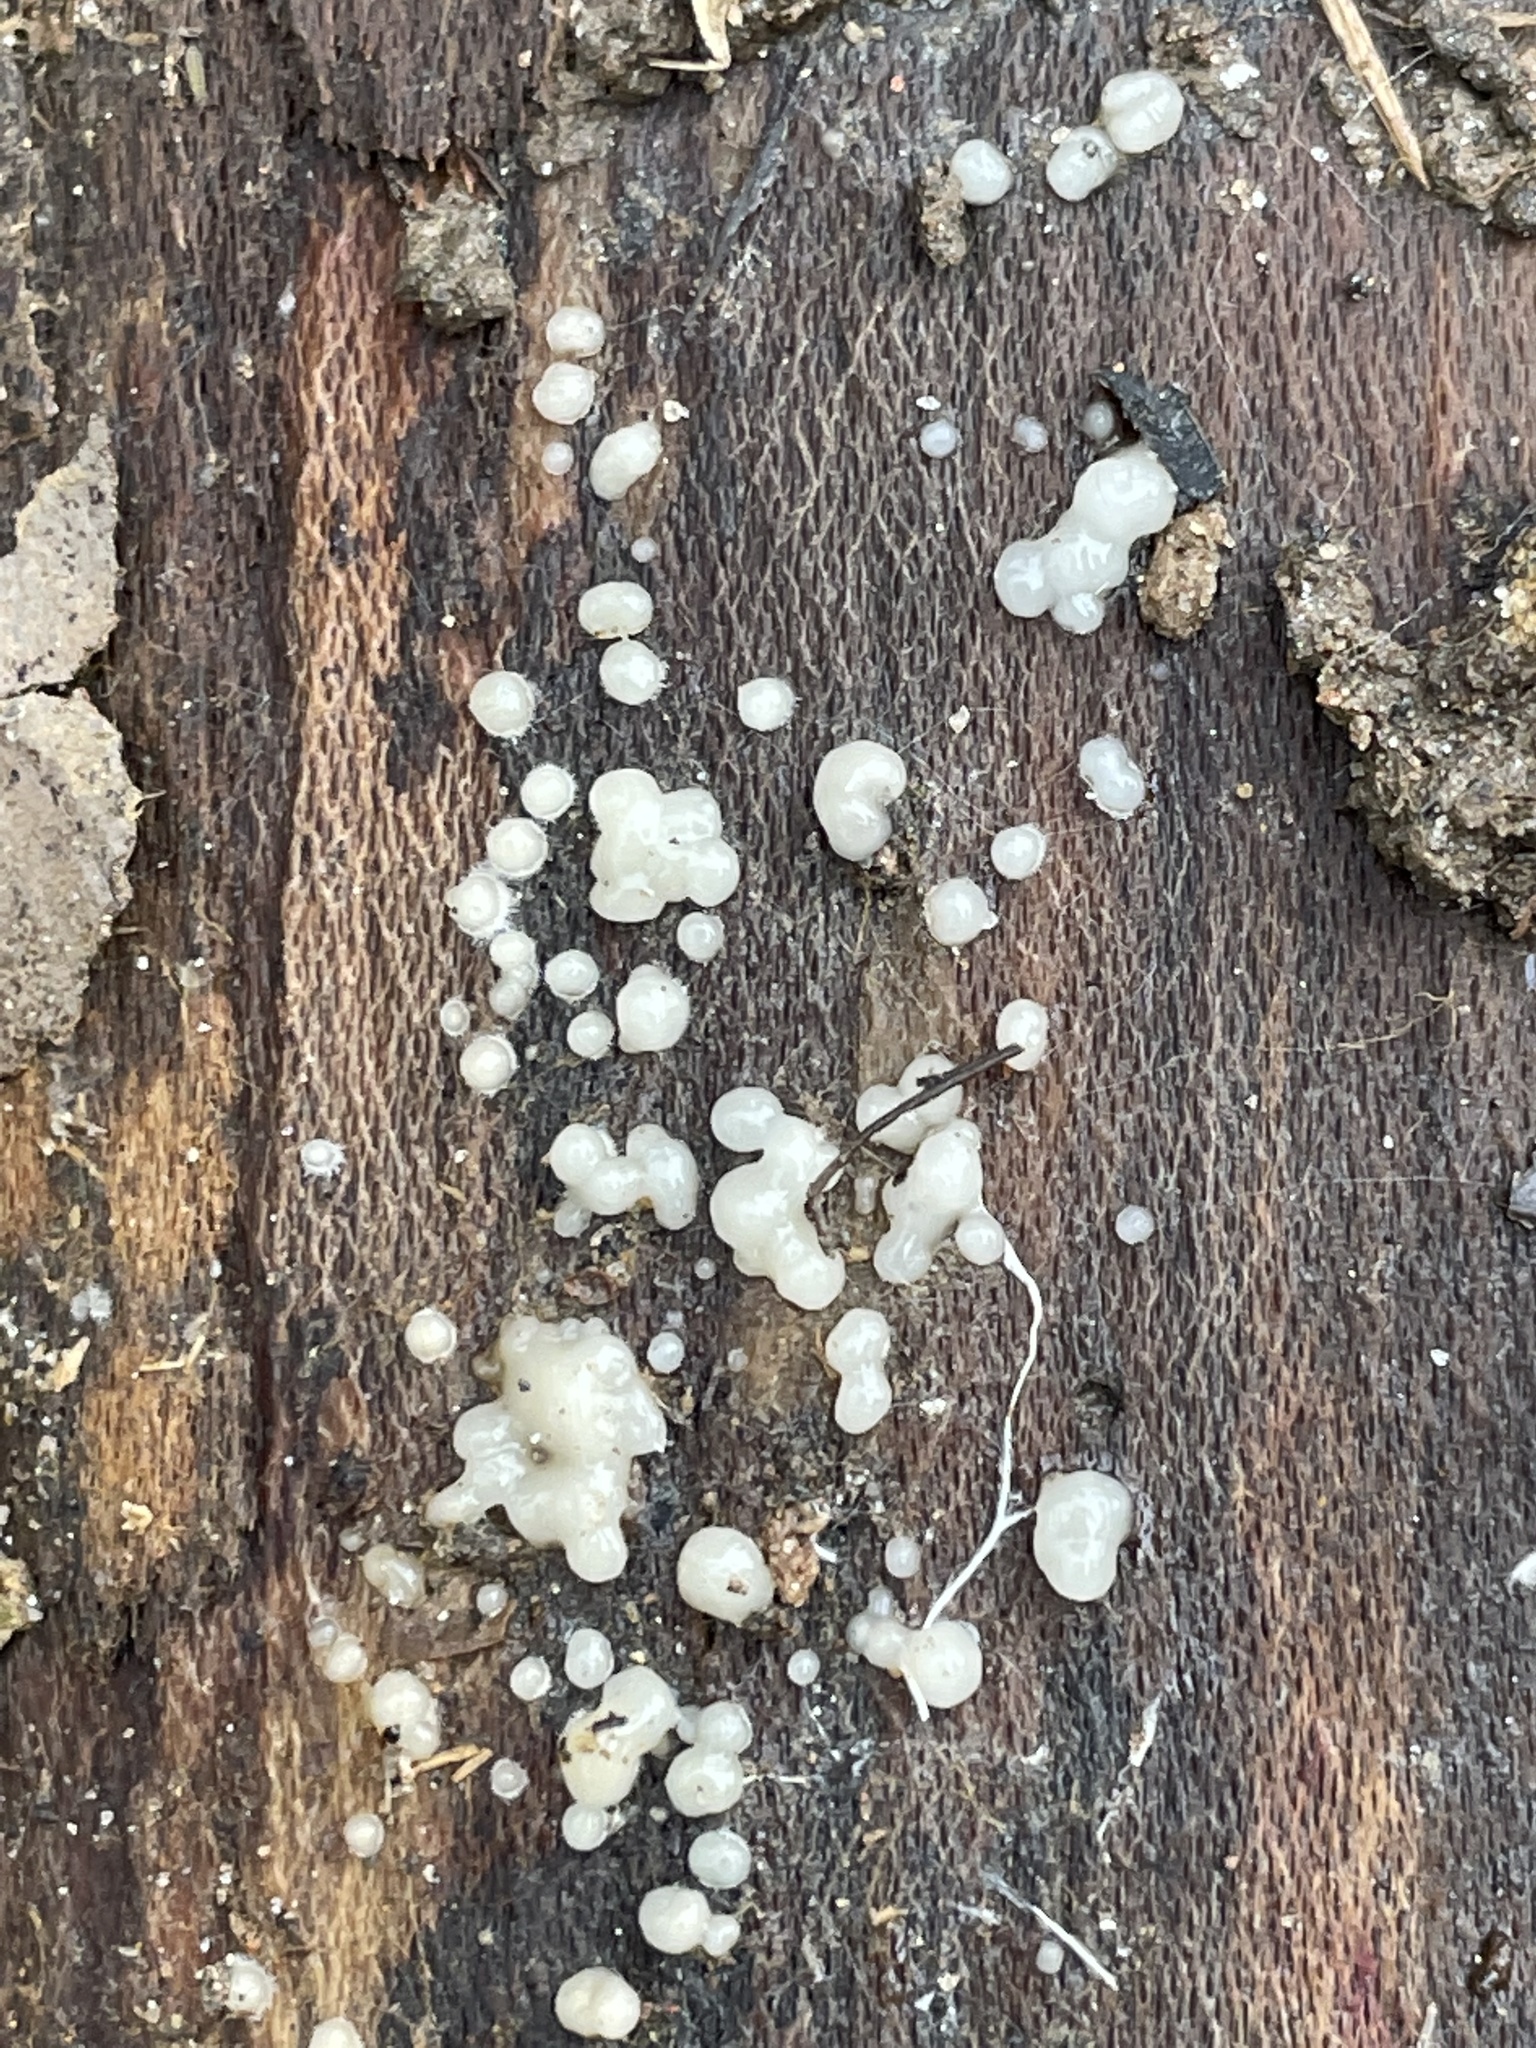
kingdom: Fungi
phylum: Basidiomycota
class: Atractiellomycetes
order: Atractiellales
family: Phleogenaceae
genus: Helicogloea
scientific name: Helicogloea compressa
